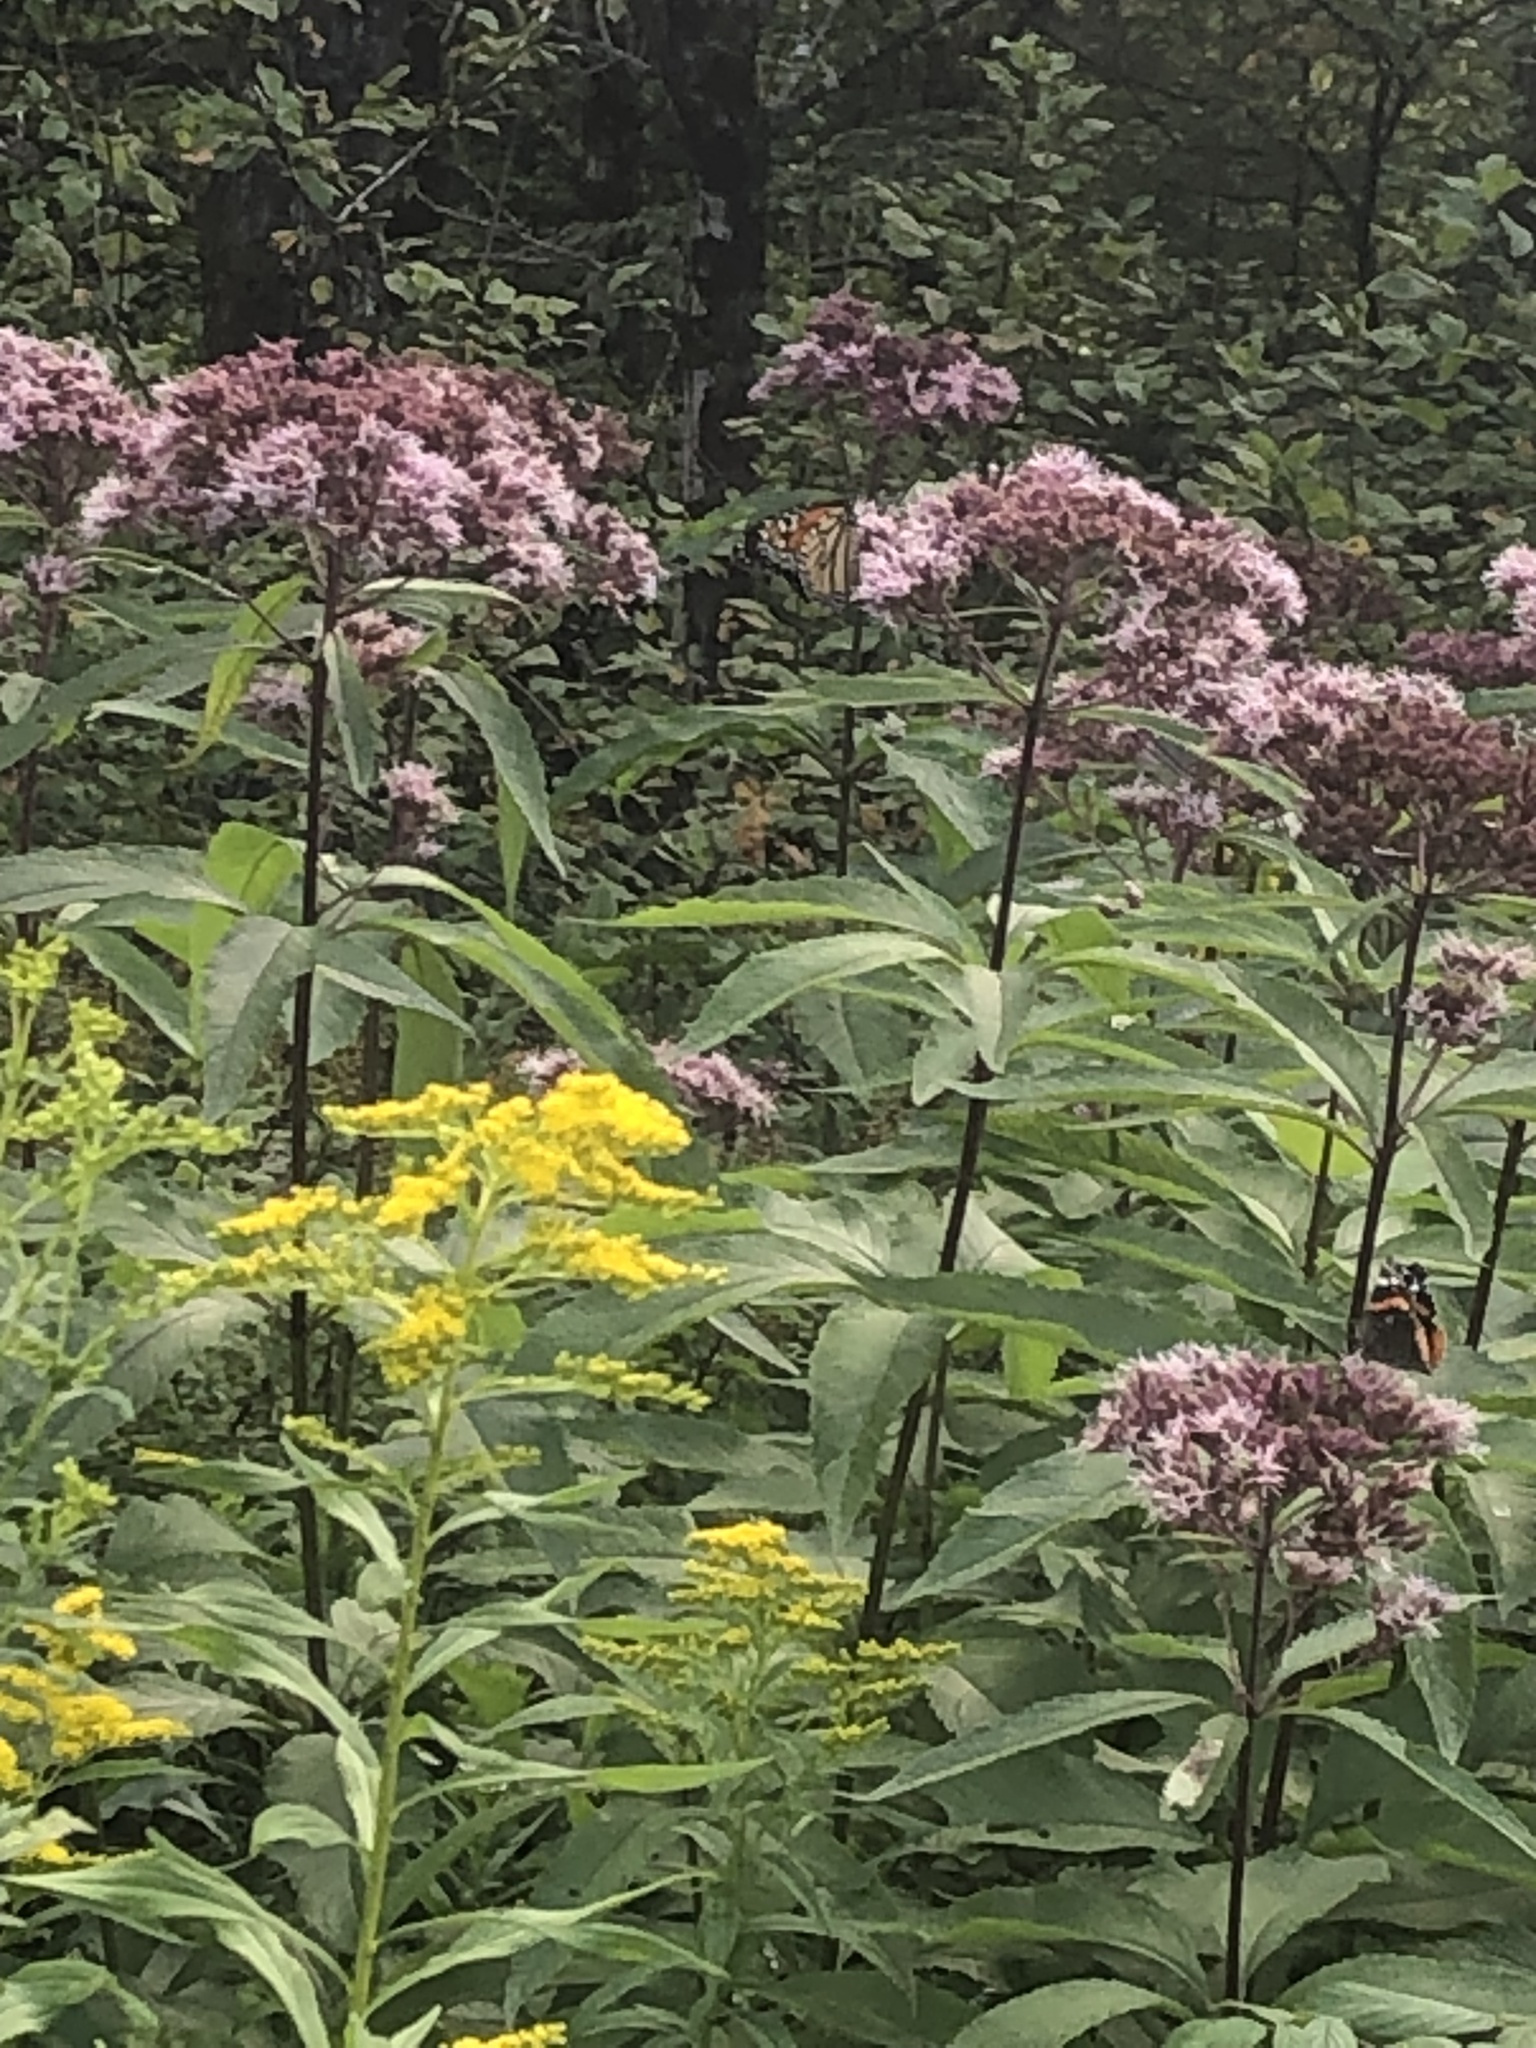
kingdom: Animalia
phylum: Arthropoda
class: Insecta
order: Lepidoptera
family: Nymphalidae
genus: Danaus
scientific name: Danaus plexippus
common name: Monarch
